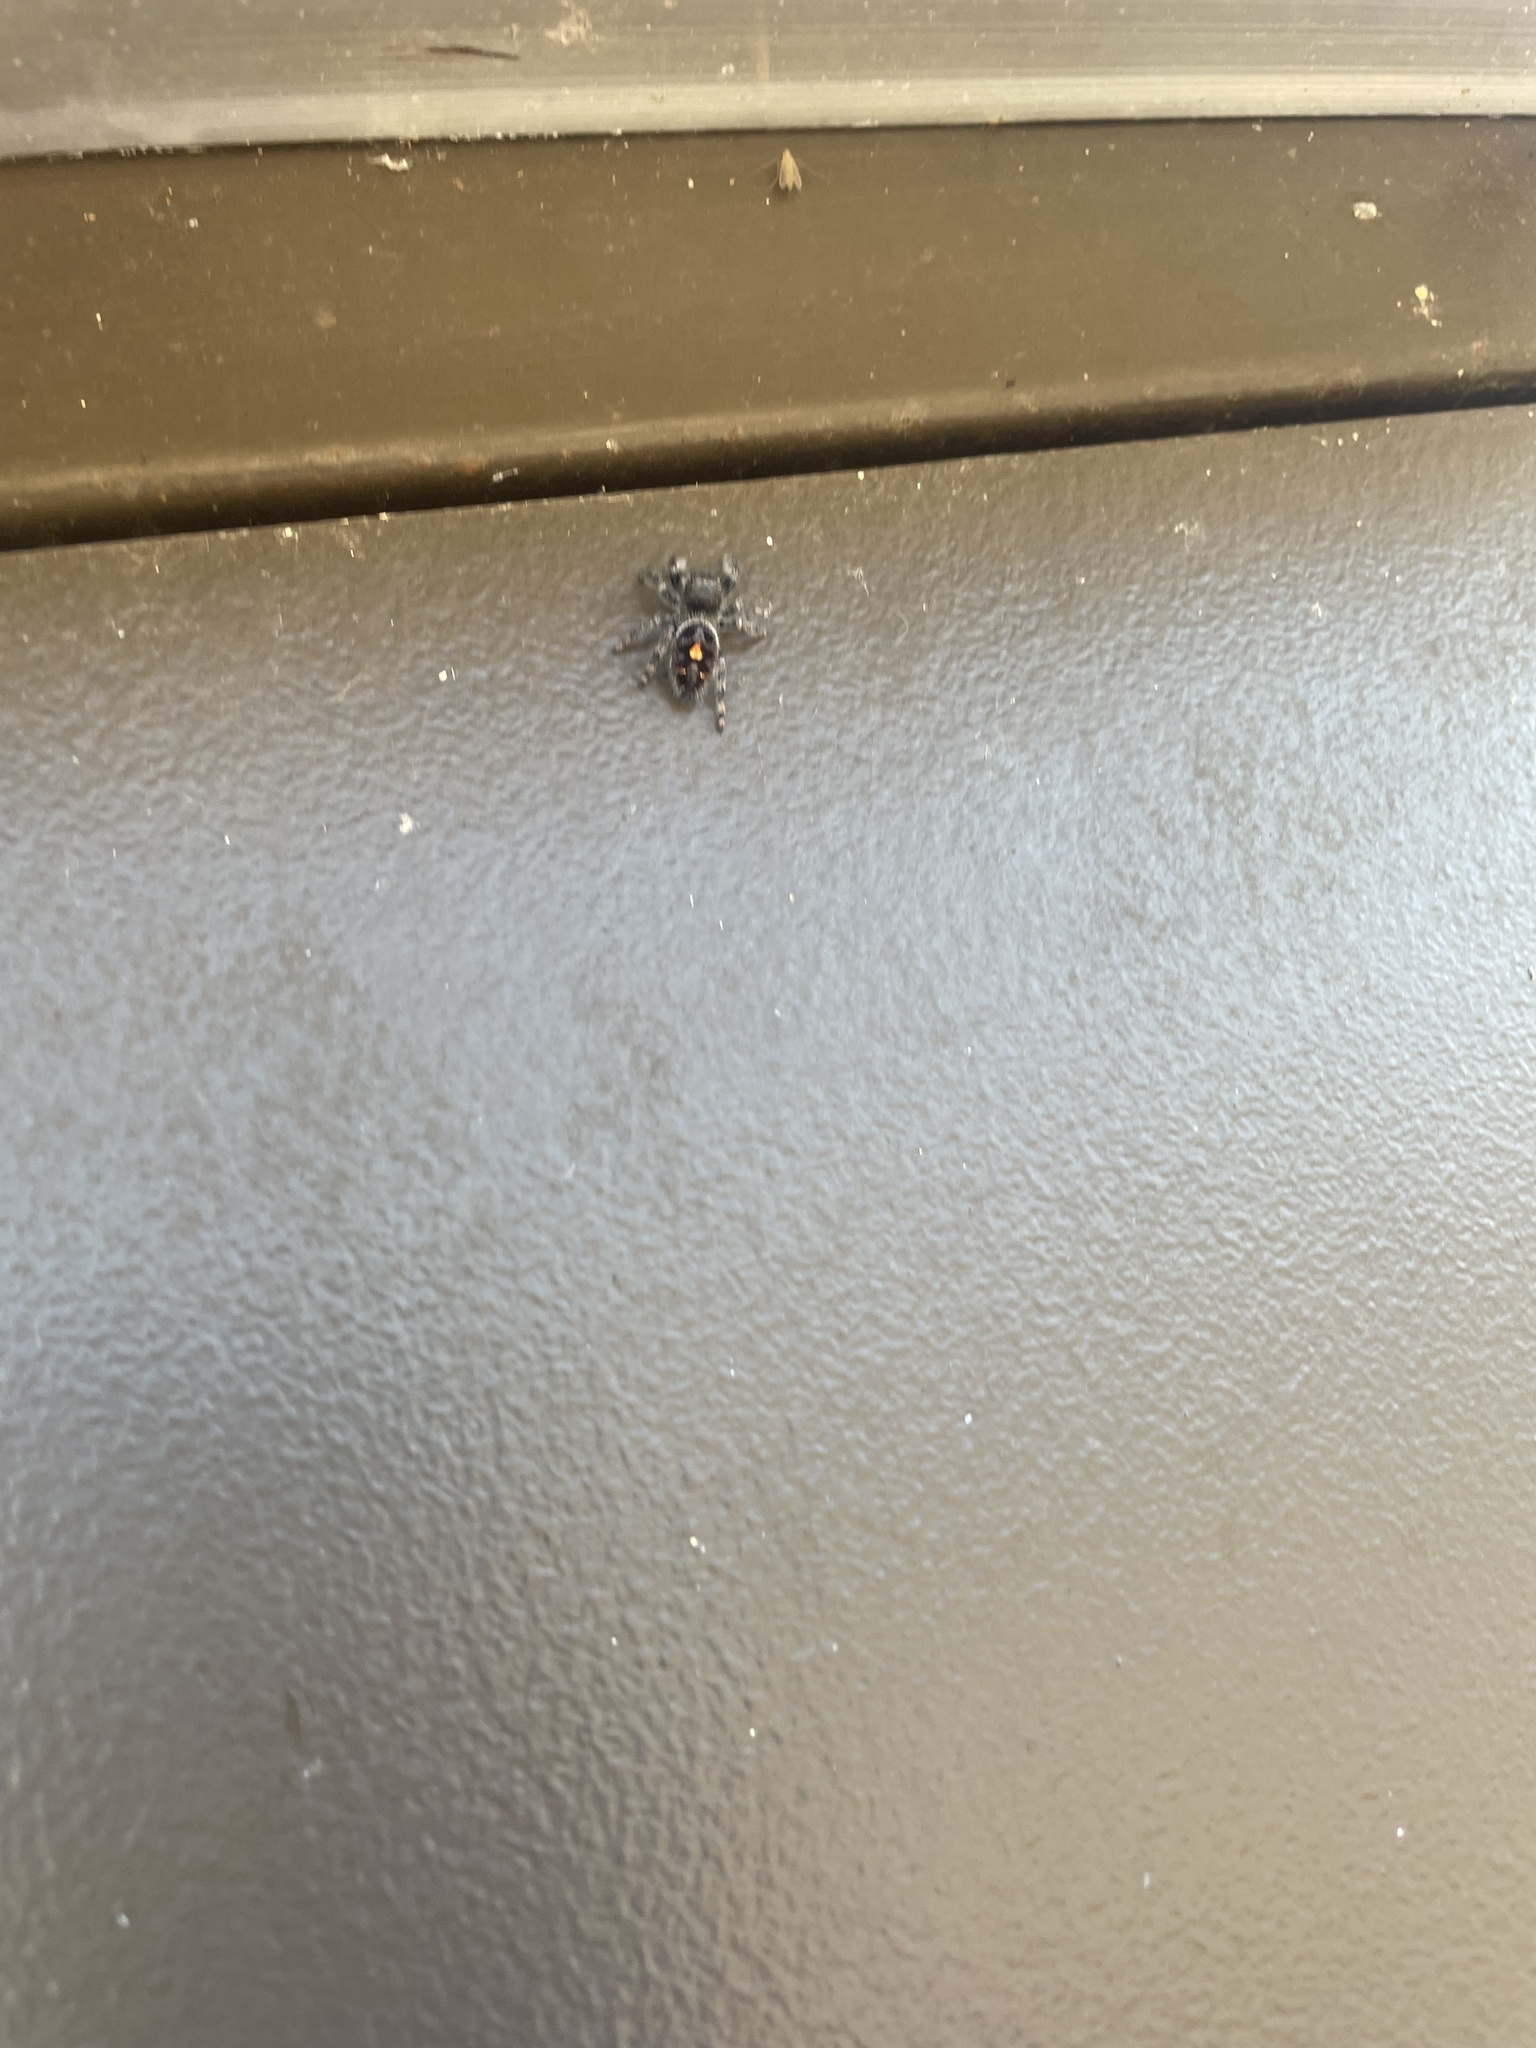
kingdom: Animalia
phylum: Arthropoda
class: Arachnida
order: Araneae
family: Salticidae
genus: Phidippus
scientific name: Phidippus audax
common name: Bold jumper
